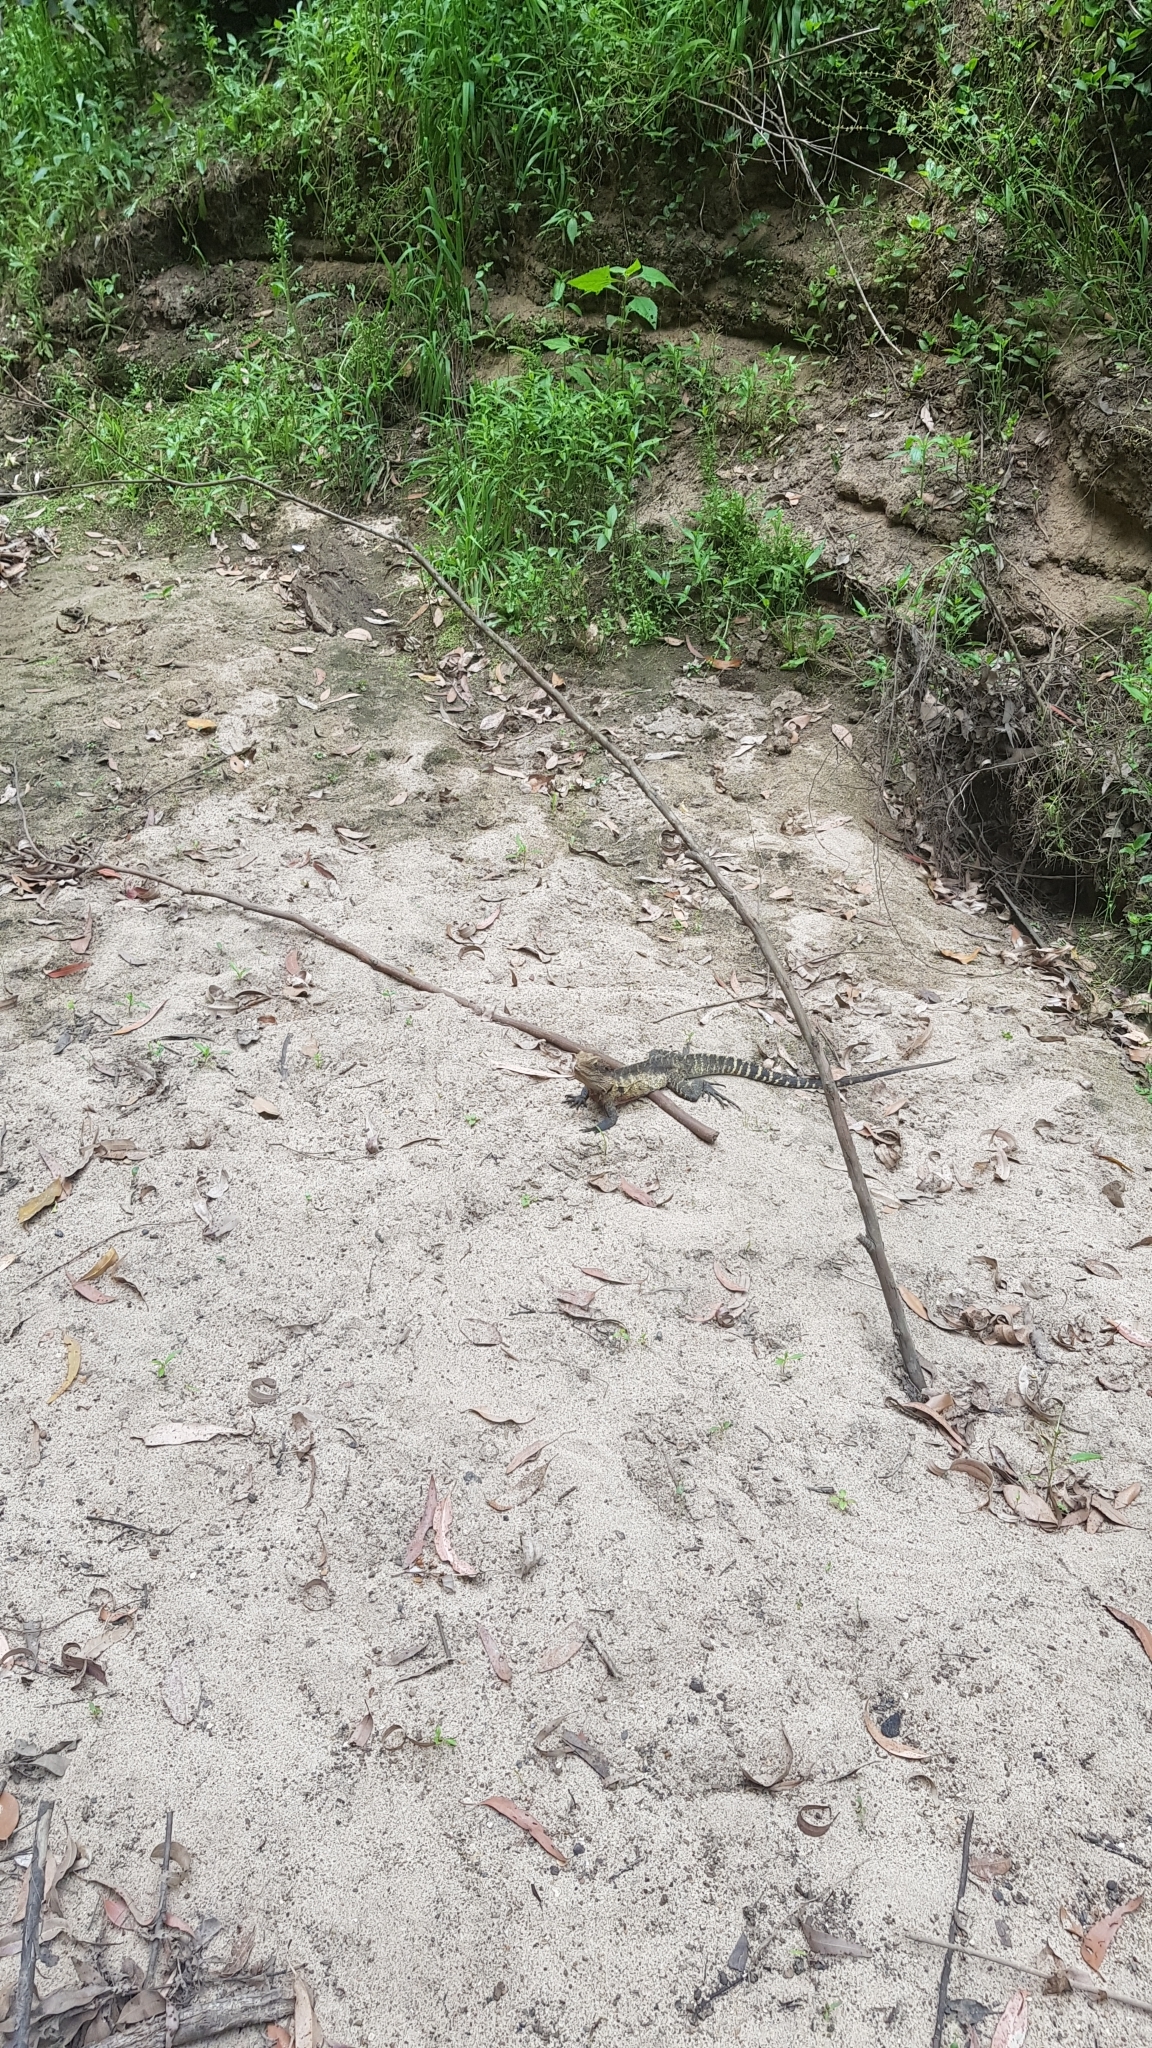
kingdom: Animalia
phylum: Chordata
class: Squamata
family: Agamidae
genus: Intellagama
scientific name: Intellagama lesueurii
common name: Eastern water dragon
